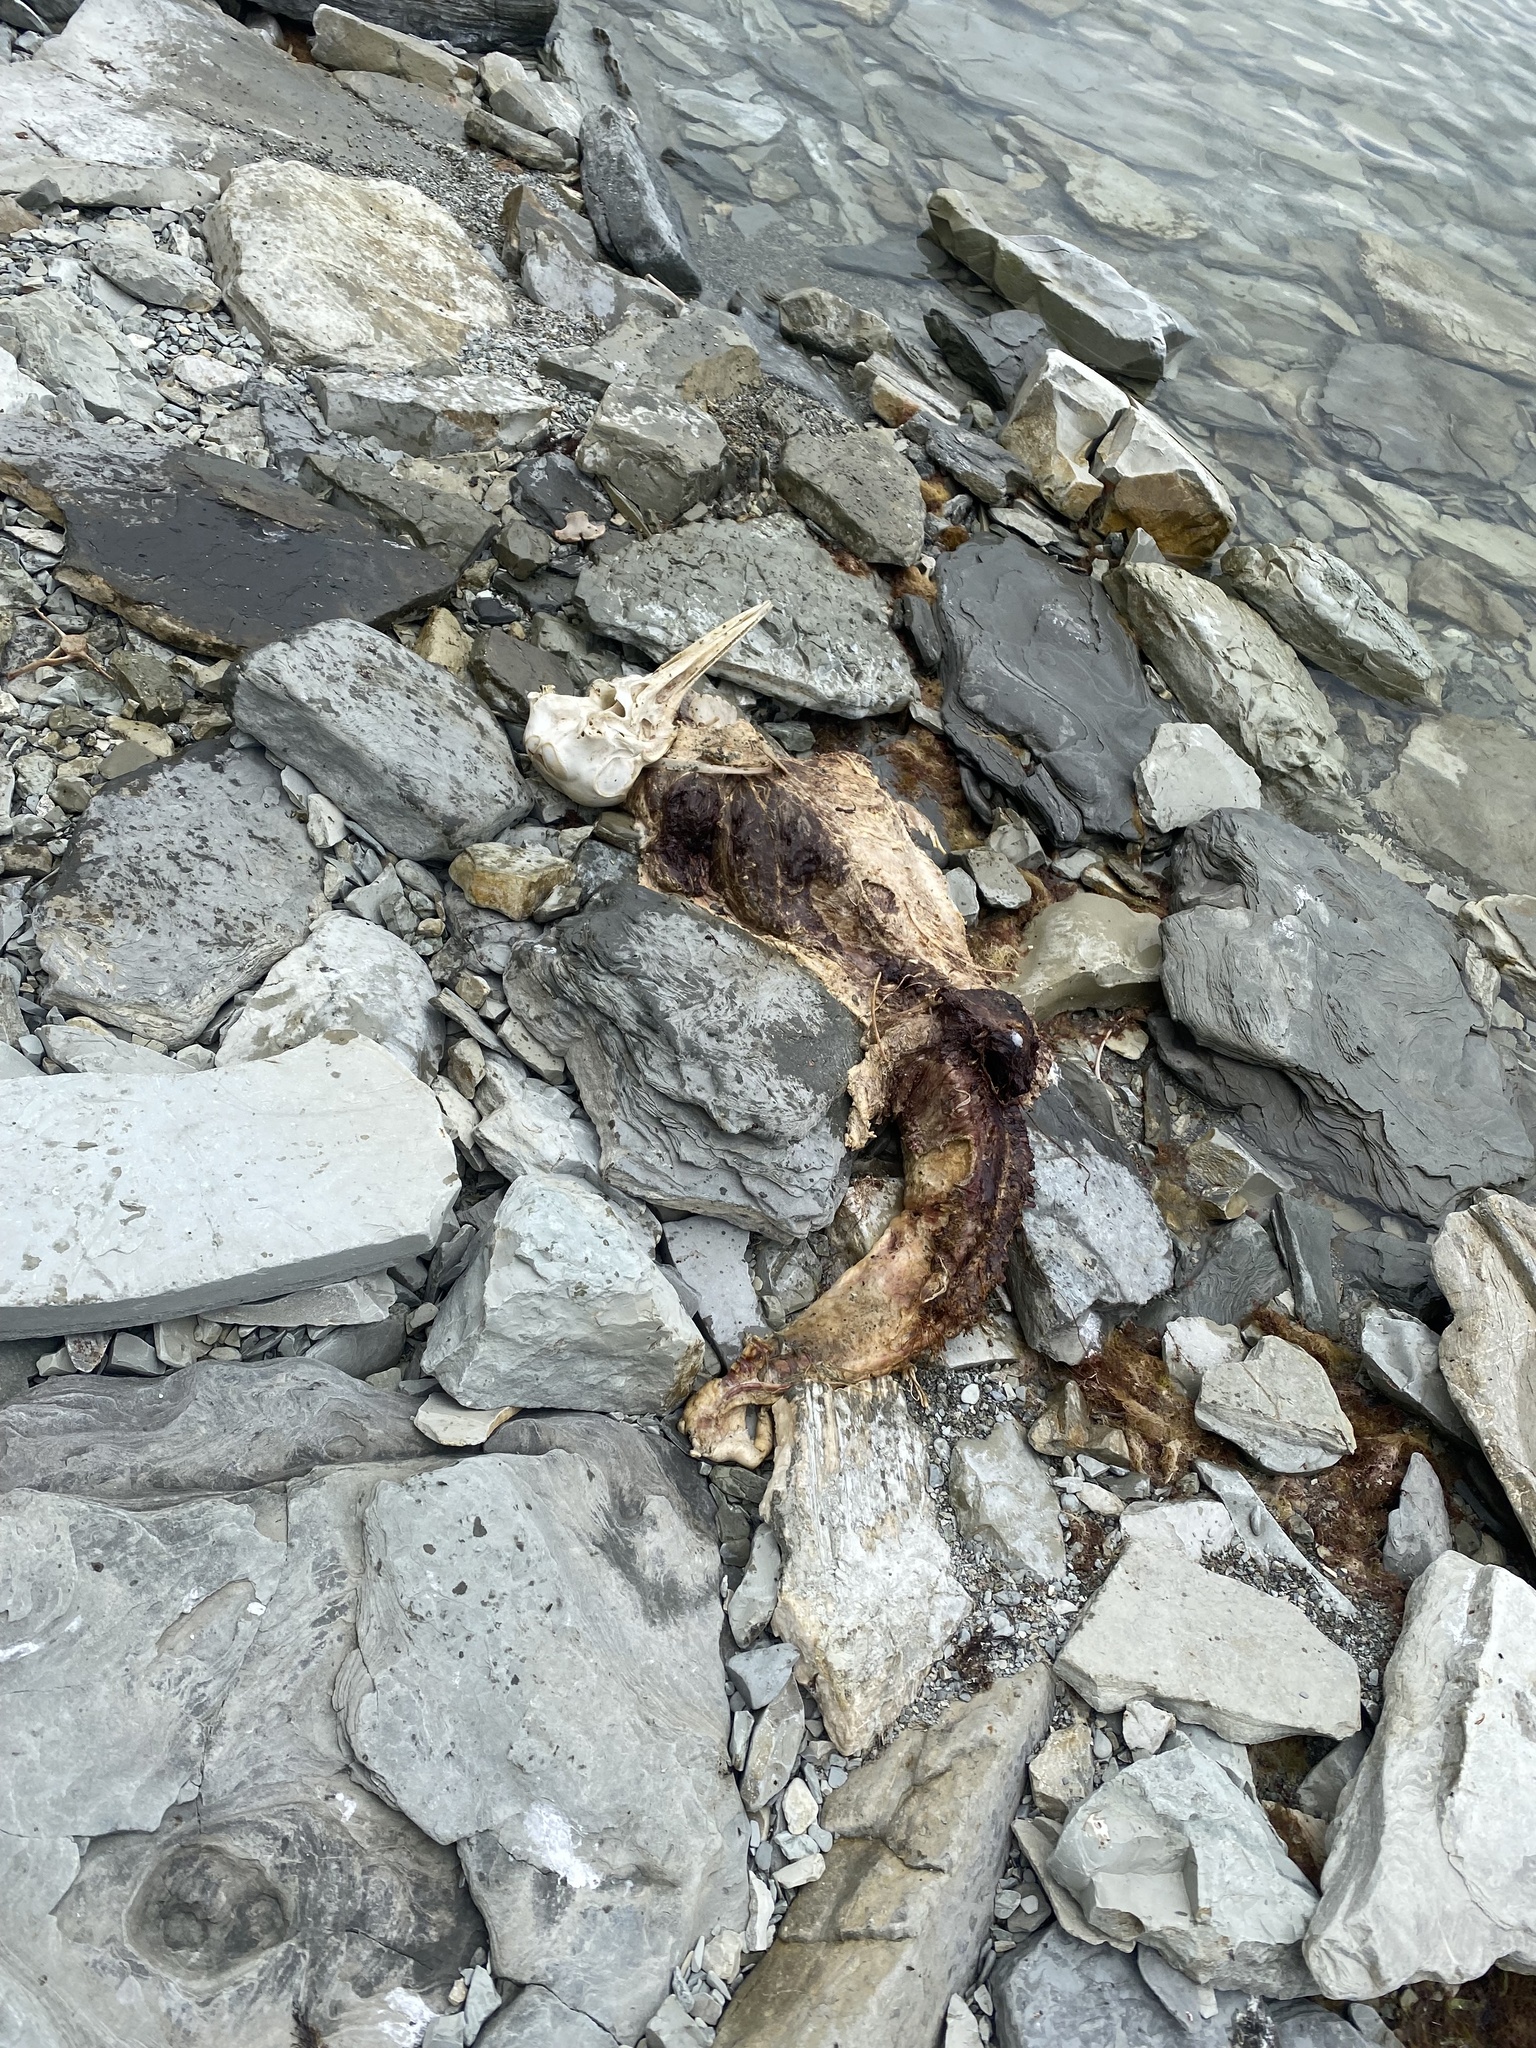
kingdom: Animalia
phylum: Chordata
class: Mammalia
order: Cetacea
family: Delphinidae
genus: Delphinus
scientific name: Delphinus delphis
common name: Common dolphin
